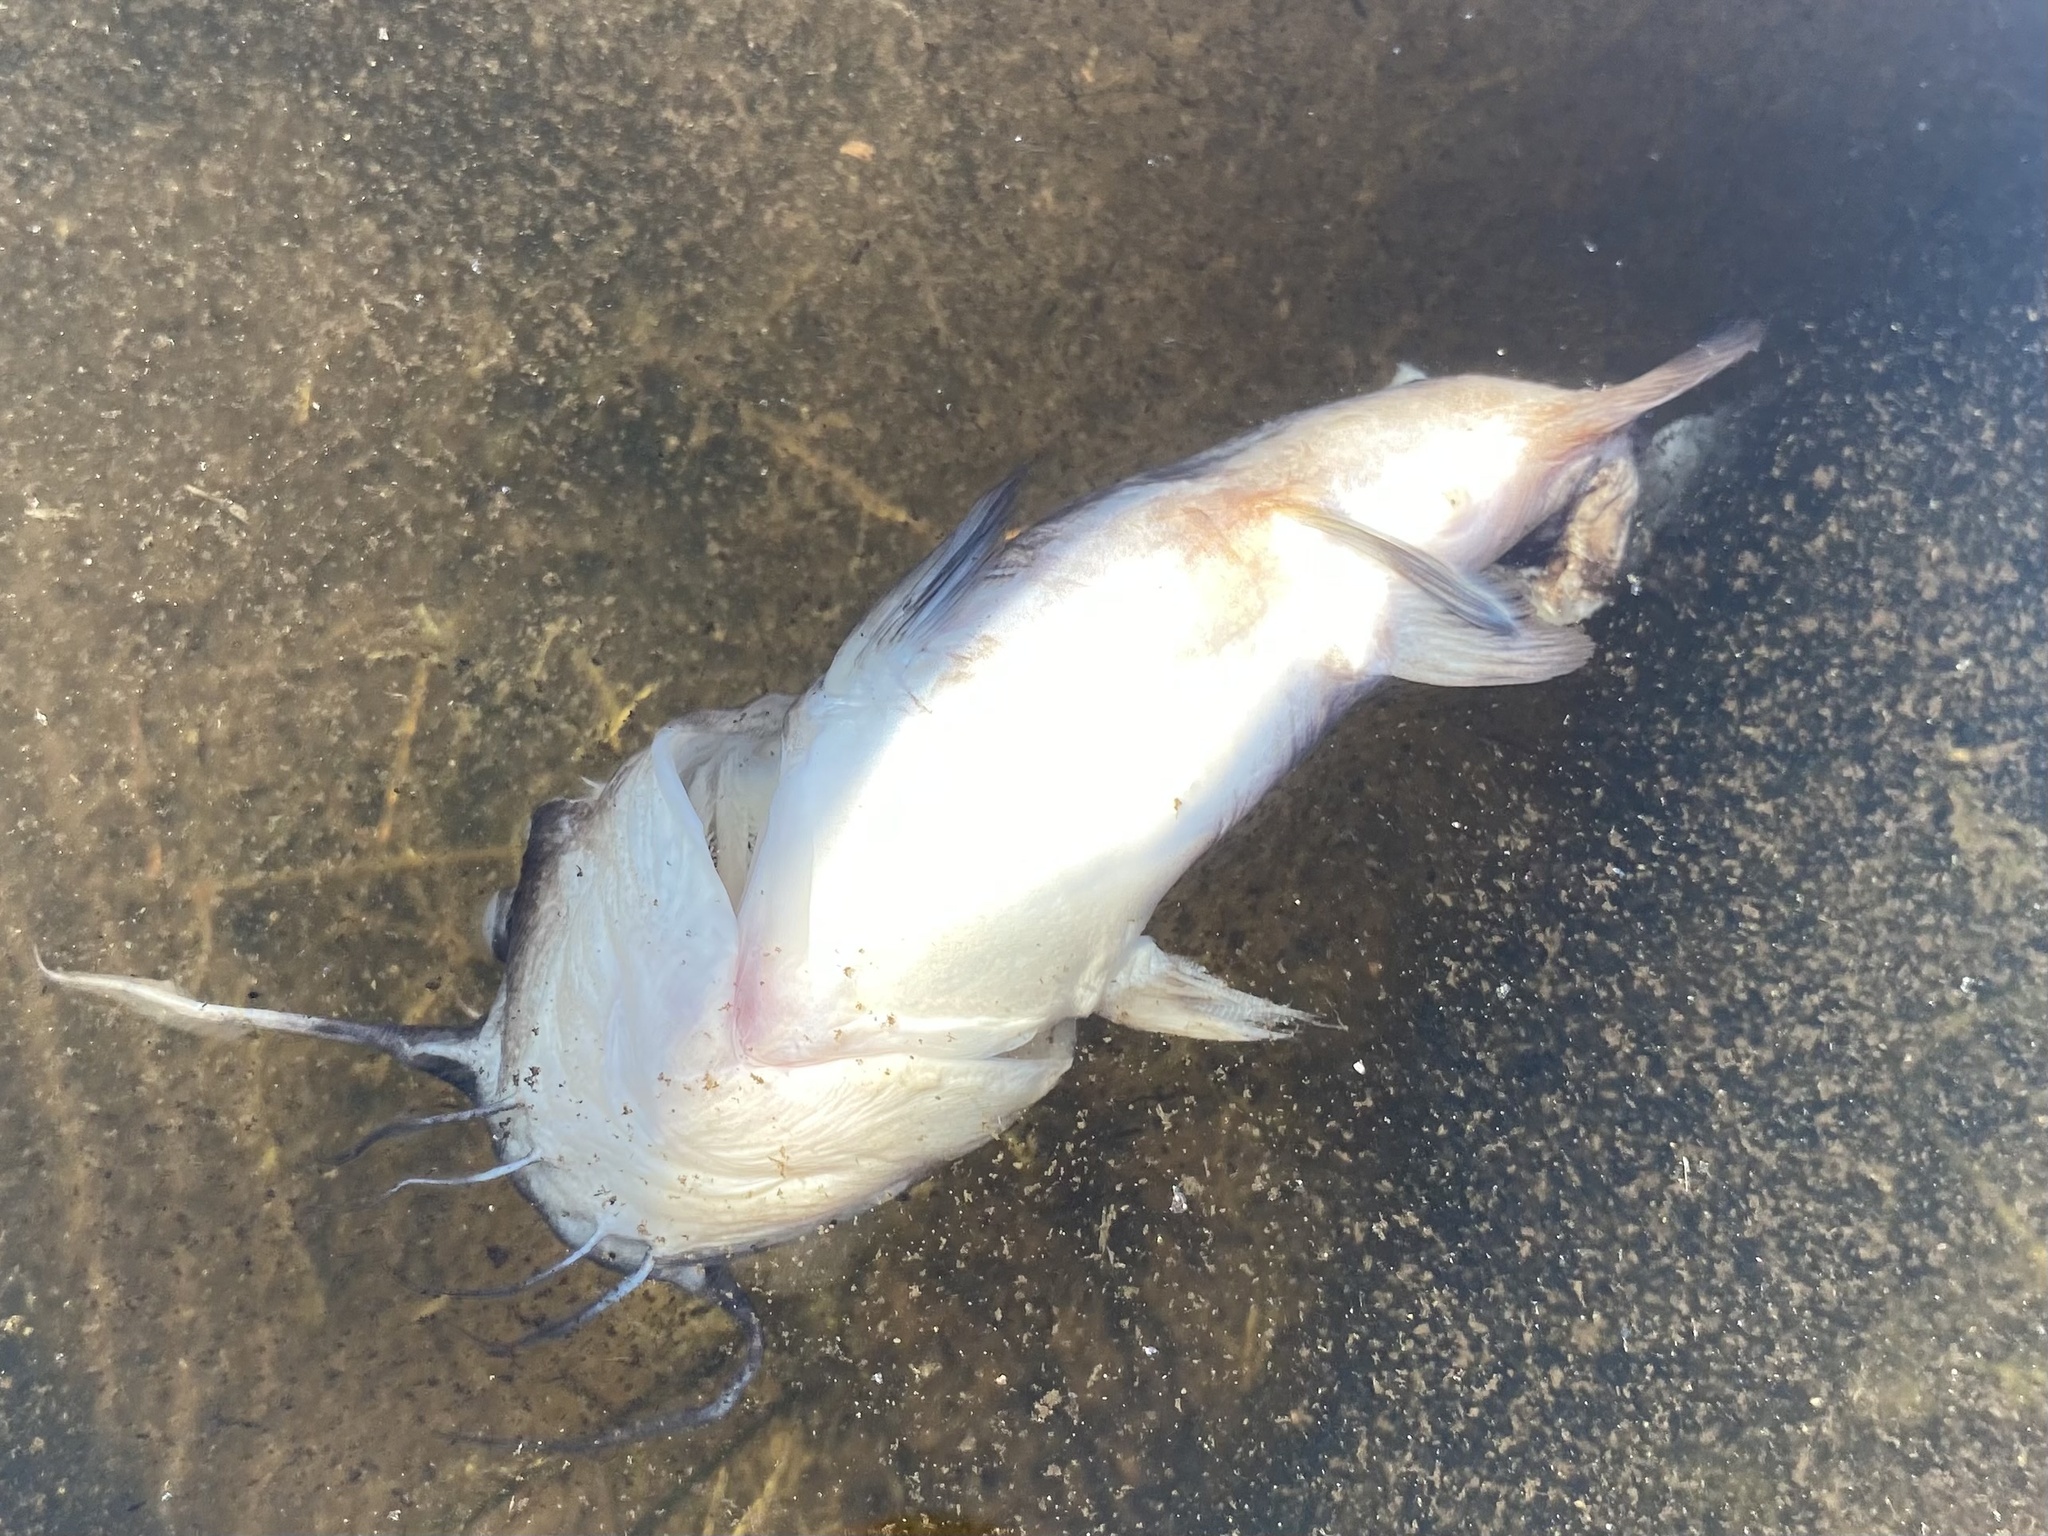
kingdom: Animalia
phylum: Chordata
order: Siluriformes
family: Ictaluridae
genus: Ameiurus
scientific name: Ameiurus nebulosus
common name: Brown bullhead
